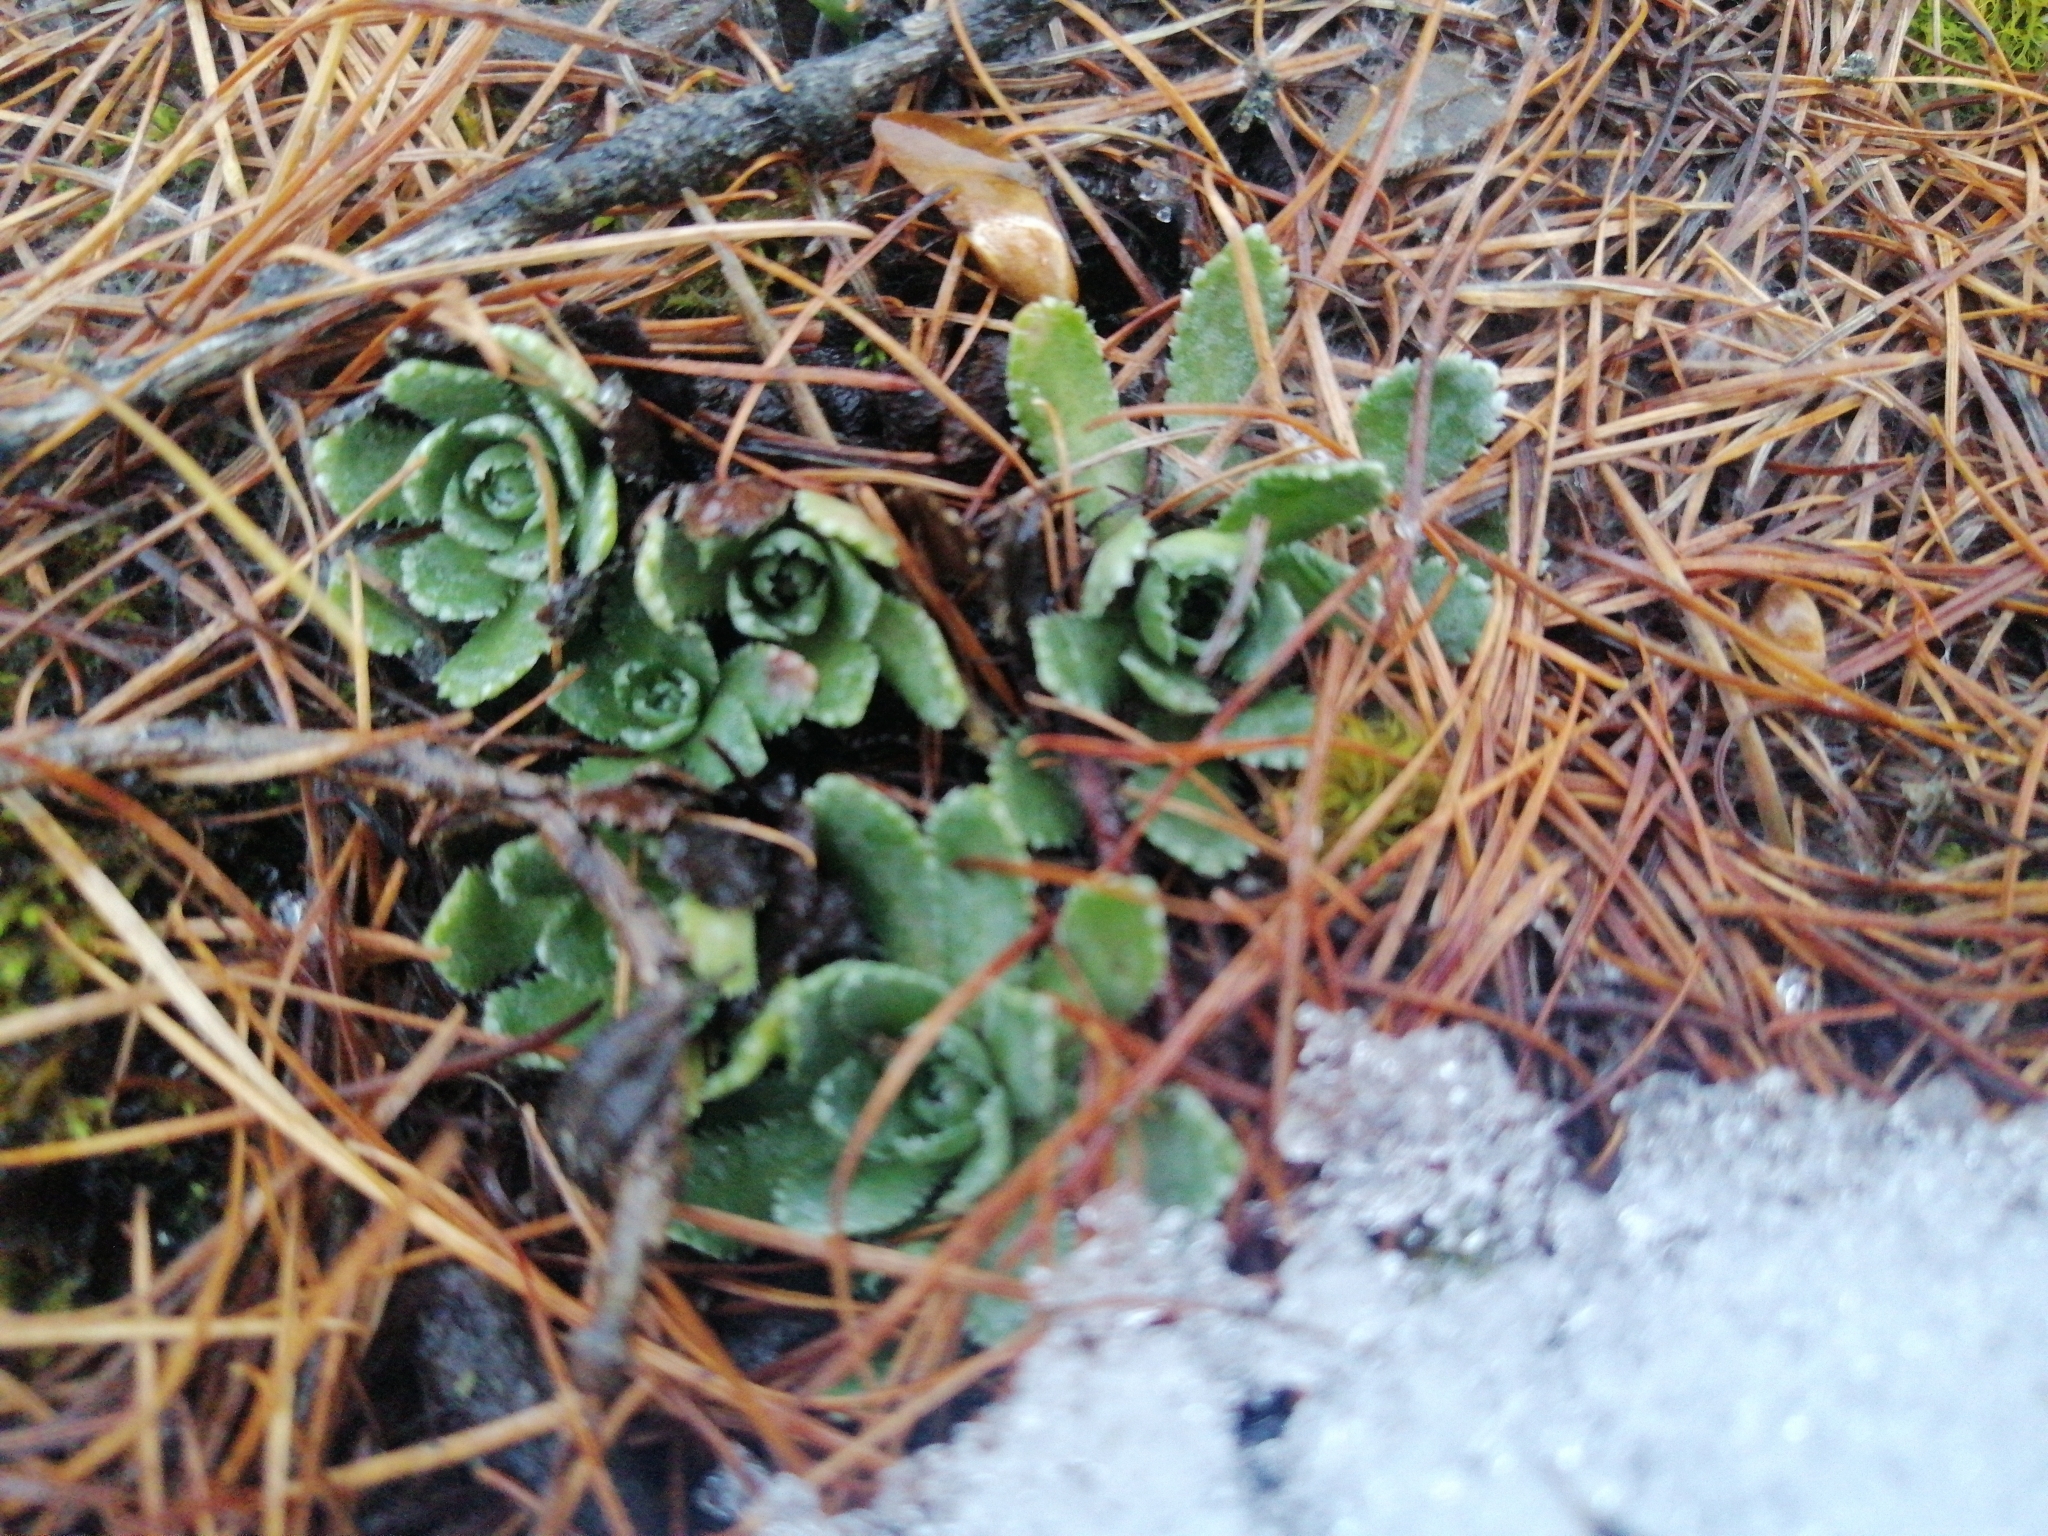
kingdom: Plantae
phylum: Tracheophyta
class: Magnoliopsida
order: Saxifragales
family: Saxifragaceae
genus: Saxifraga
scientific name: Saxifraga paniculata
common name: Livelong saxifrage
